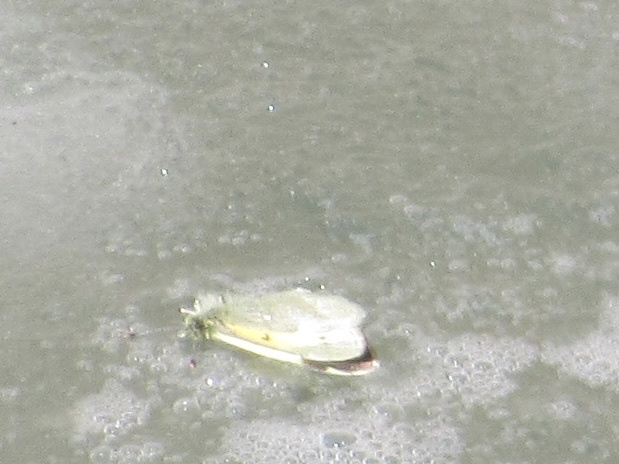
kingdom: Animalia
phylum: Arthropoda
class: Insecta
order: Lepidoptera
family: Pieridae
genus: Nathalis
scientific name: Nathalis iole
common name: Dainty sulphur
